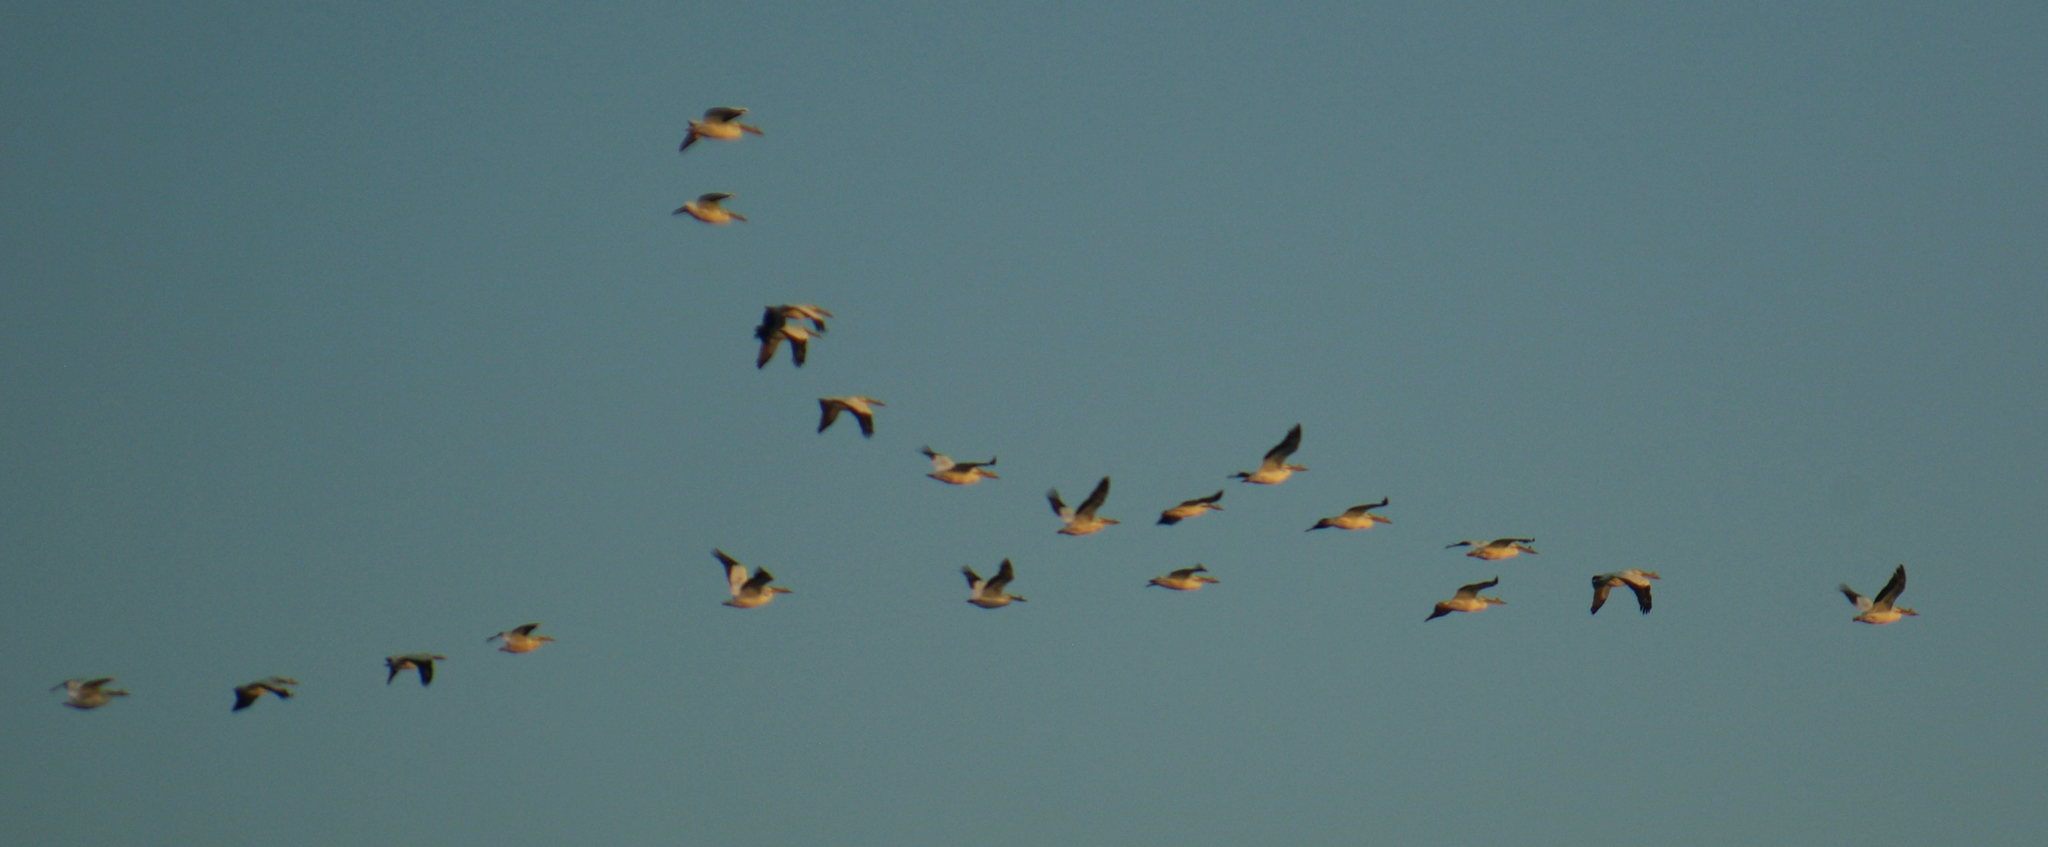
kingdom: Animalia
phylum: Chordata
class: Aves
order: Pelecaniformes
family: Pelecanidae
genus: Pelecanus
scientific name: Pelecanus erythrorhynchos
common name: American white pelican
